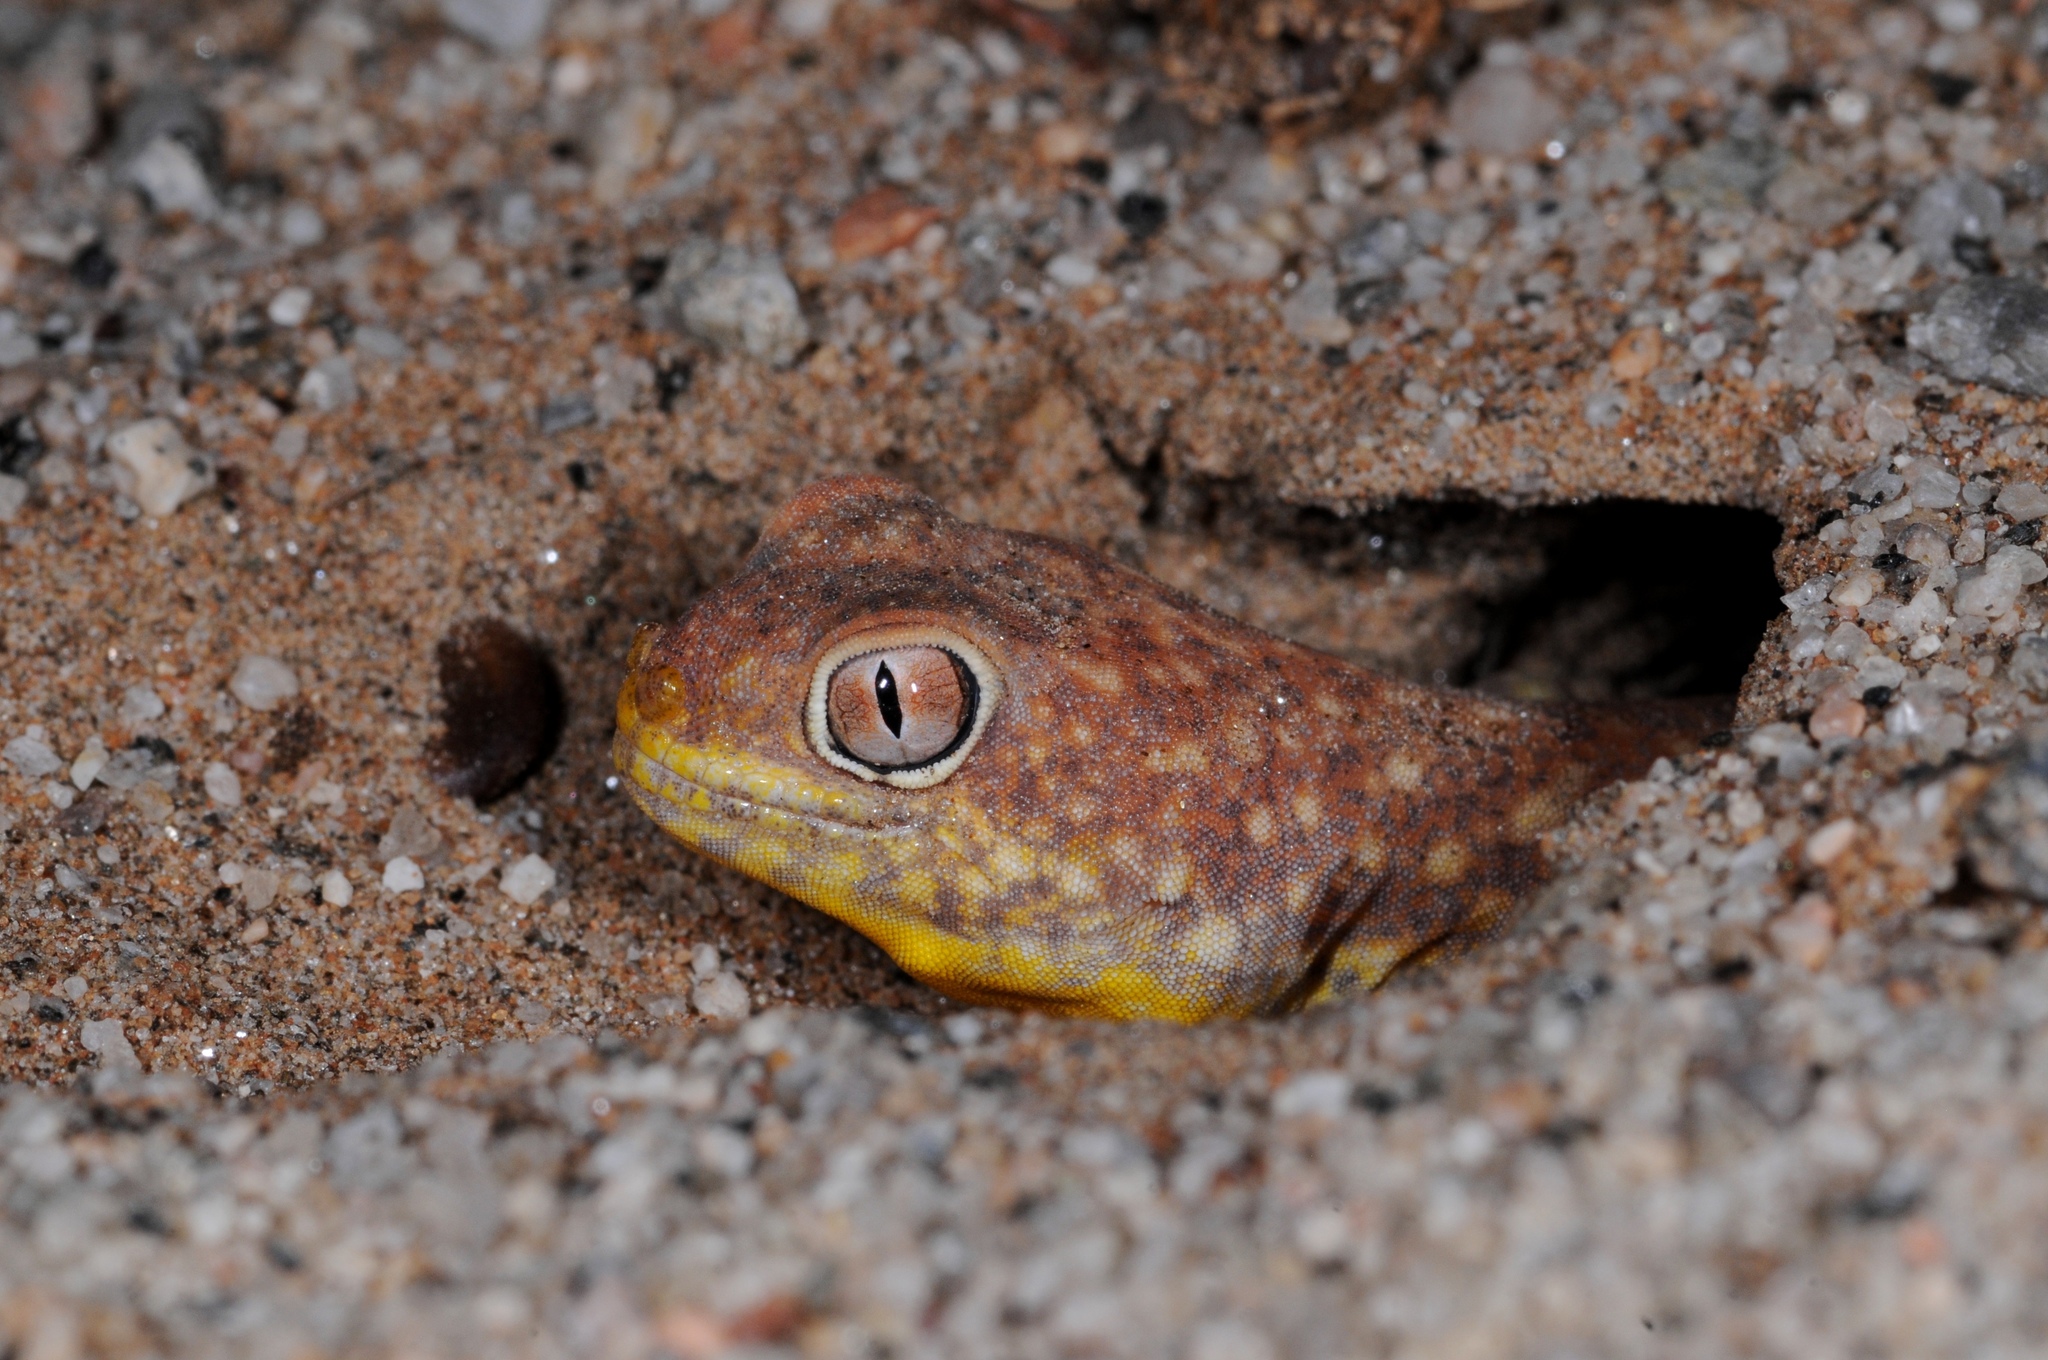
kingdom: Animalia
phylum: Chordata
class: Squamata
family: Gekkonidae
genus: Ptenopus
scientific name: Ptenopus kochi
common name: Koch's chirping gecko
